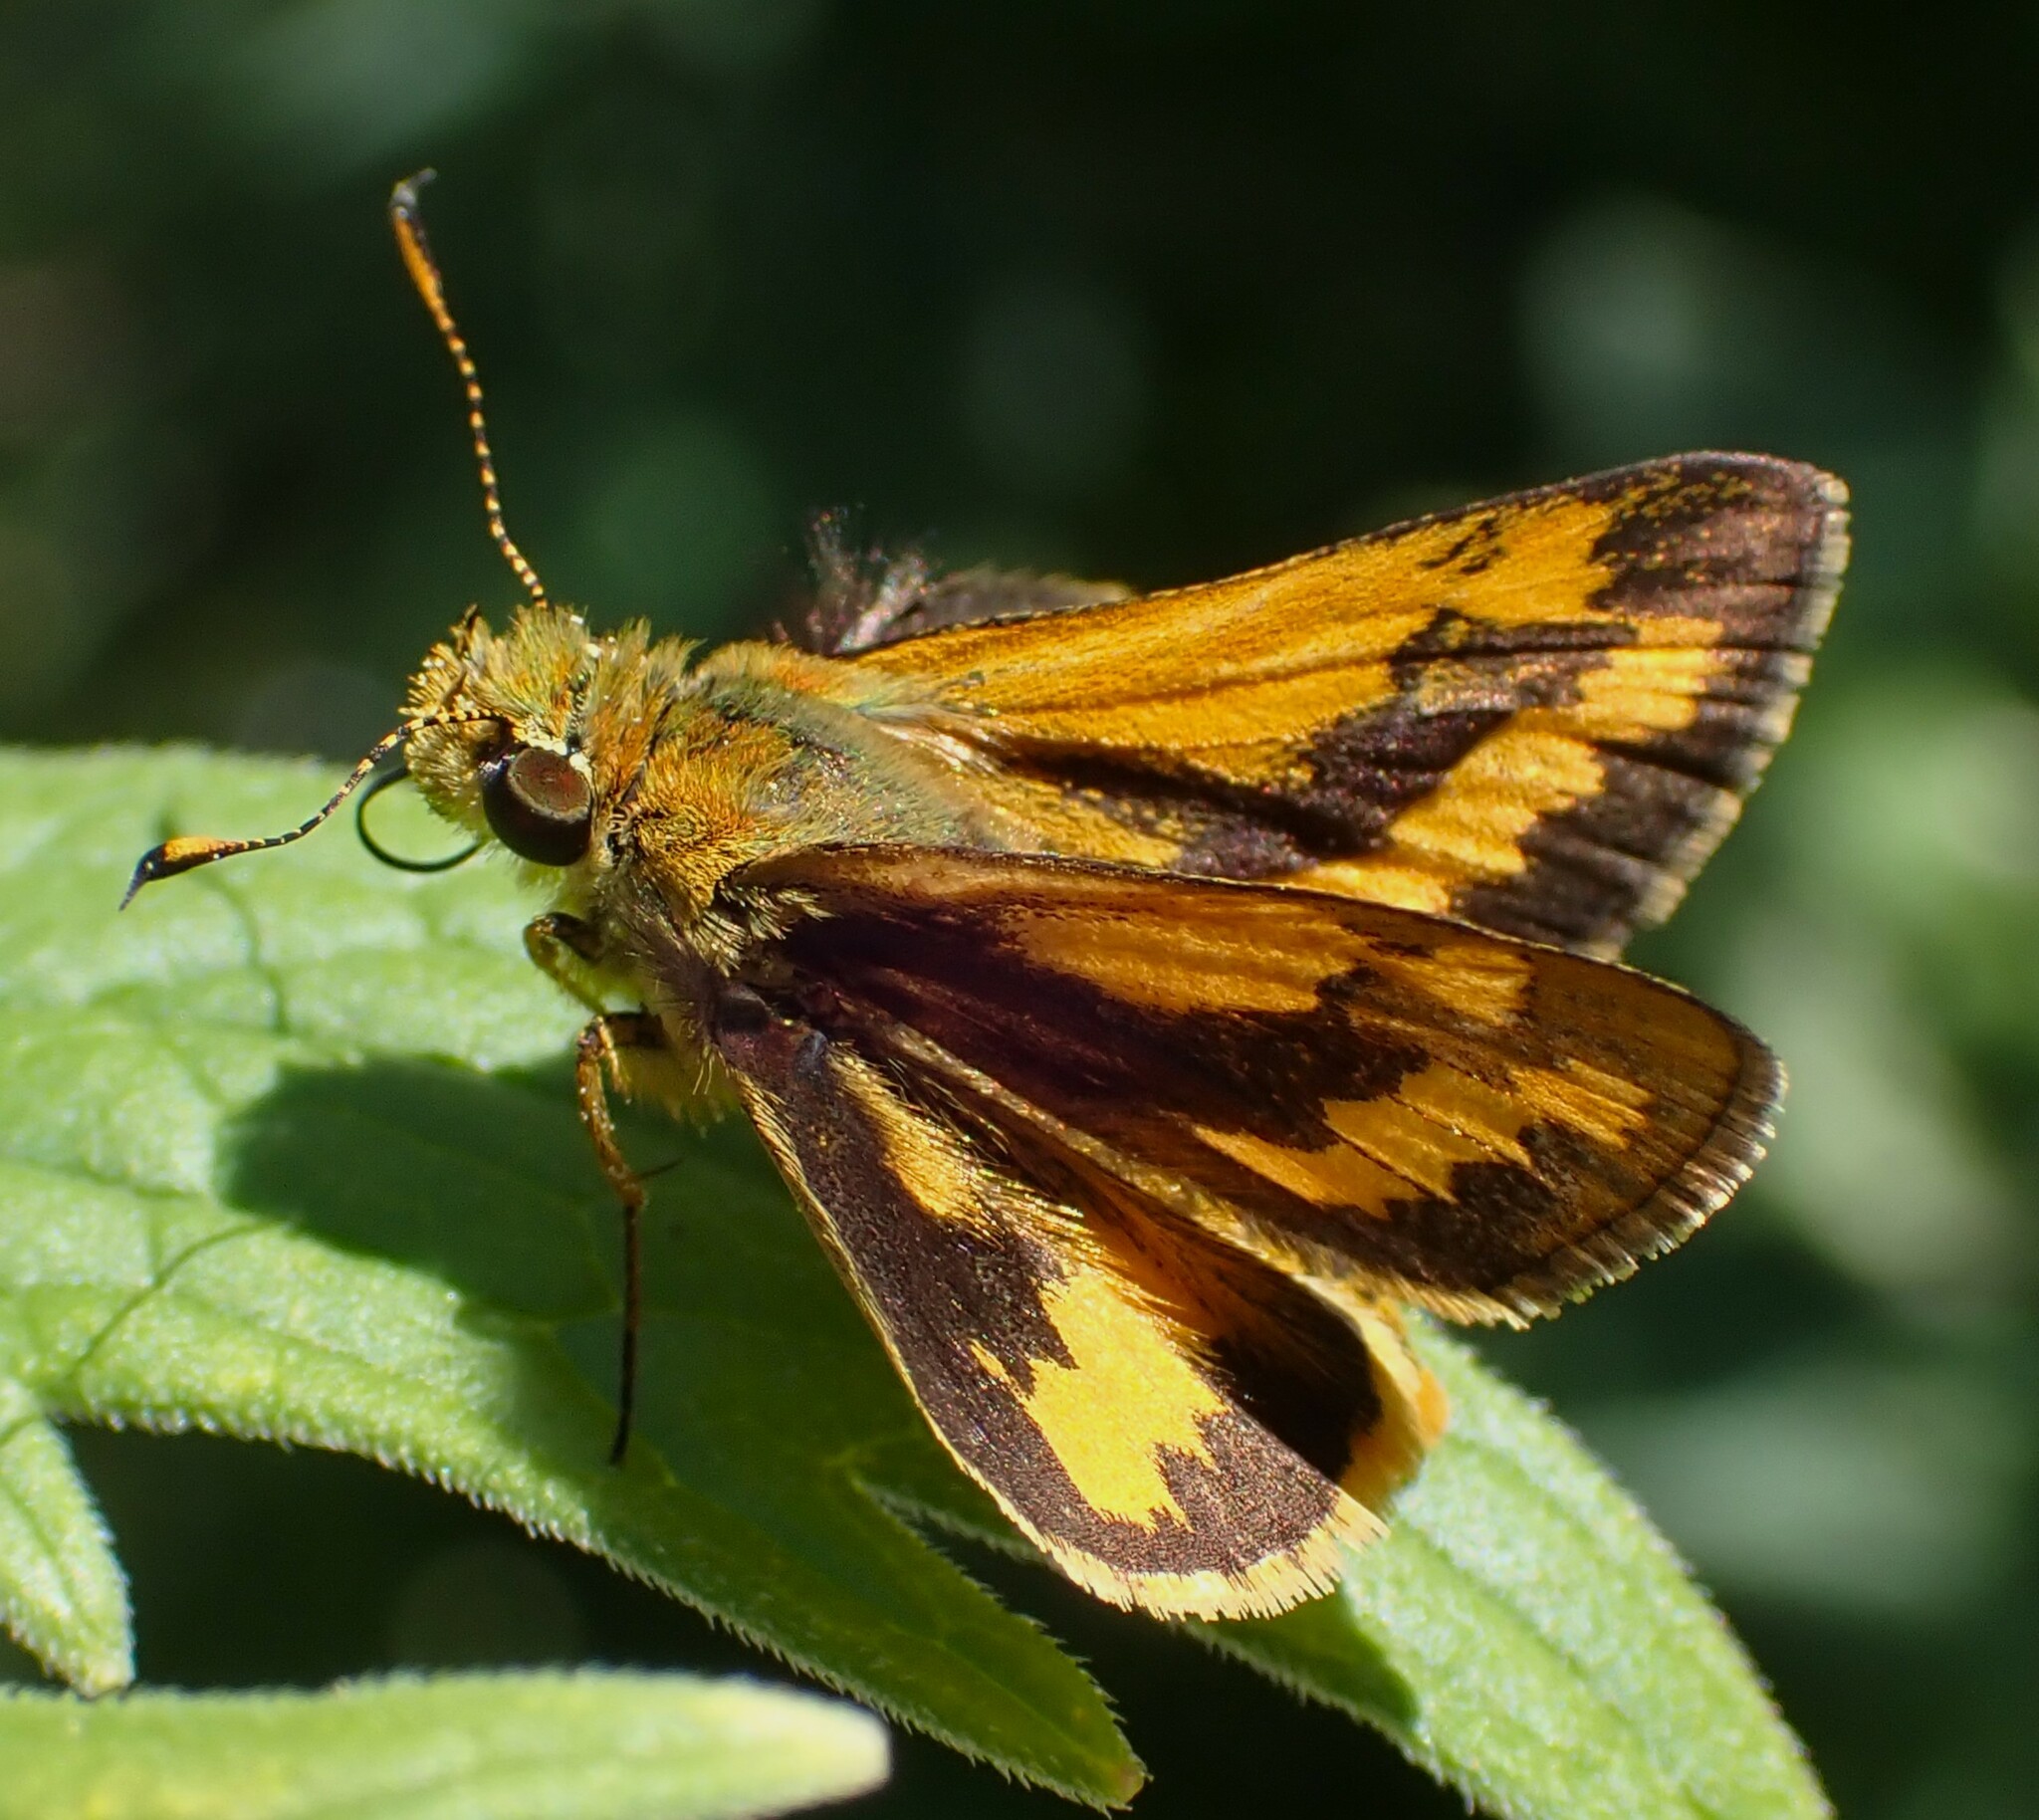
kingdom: Animalia
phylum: Arthropoda
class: Insecta
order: Lepidoptera
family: Hesperiidae
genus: Ocybadistes
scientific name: Ocybadistes walkeri
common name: Yellow-banded dart
